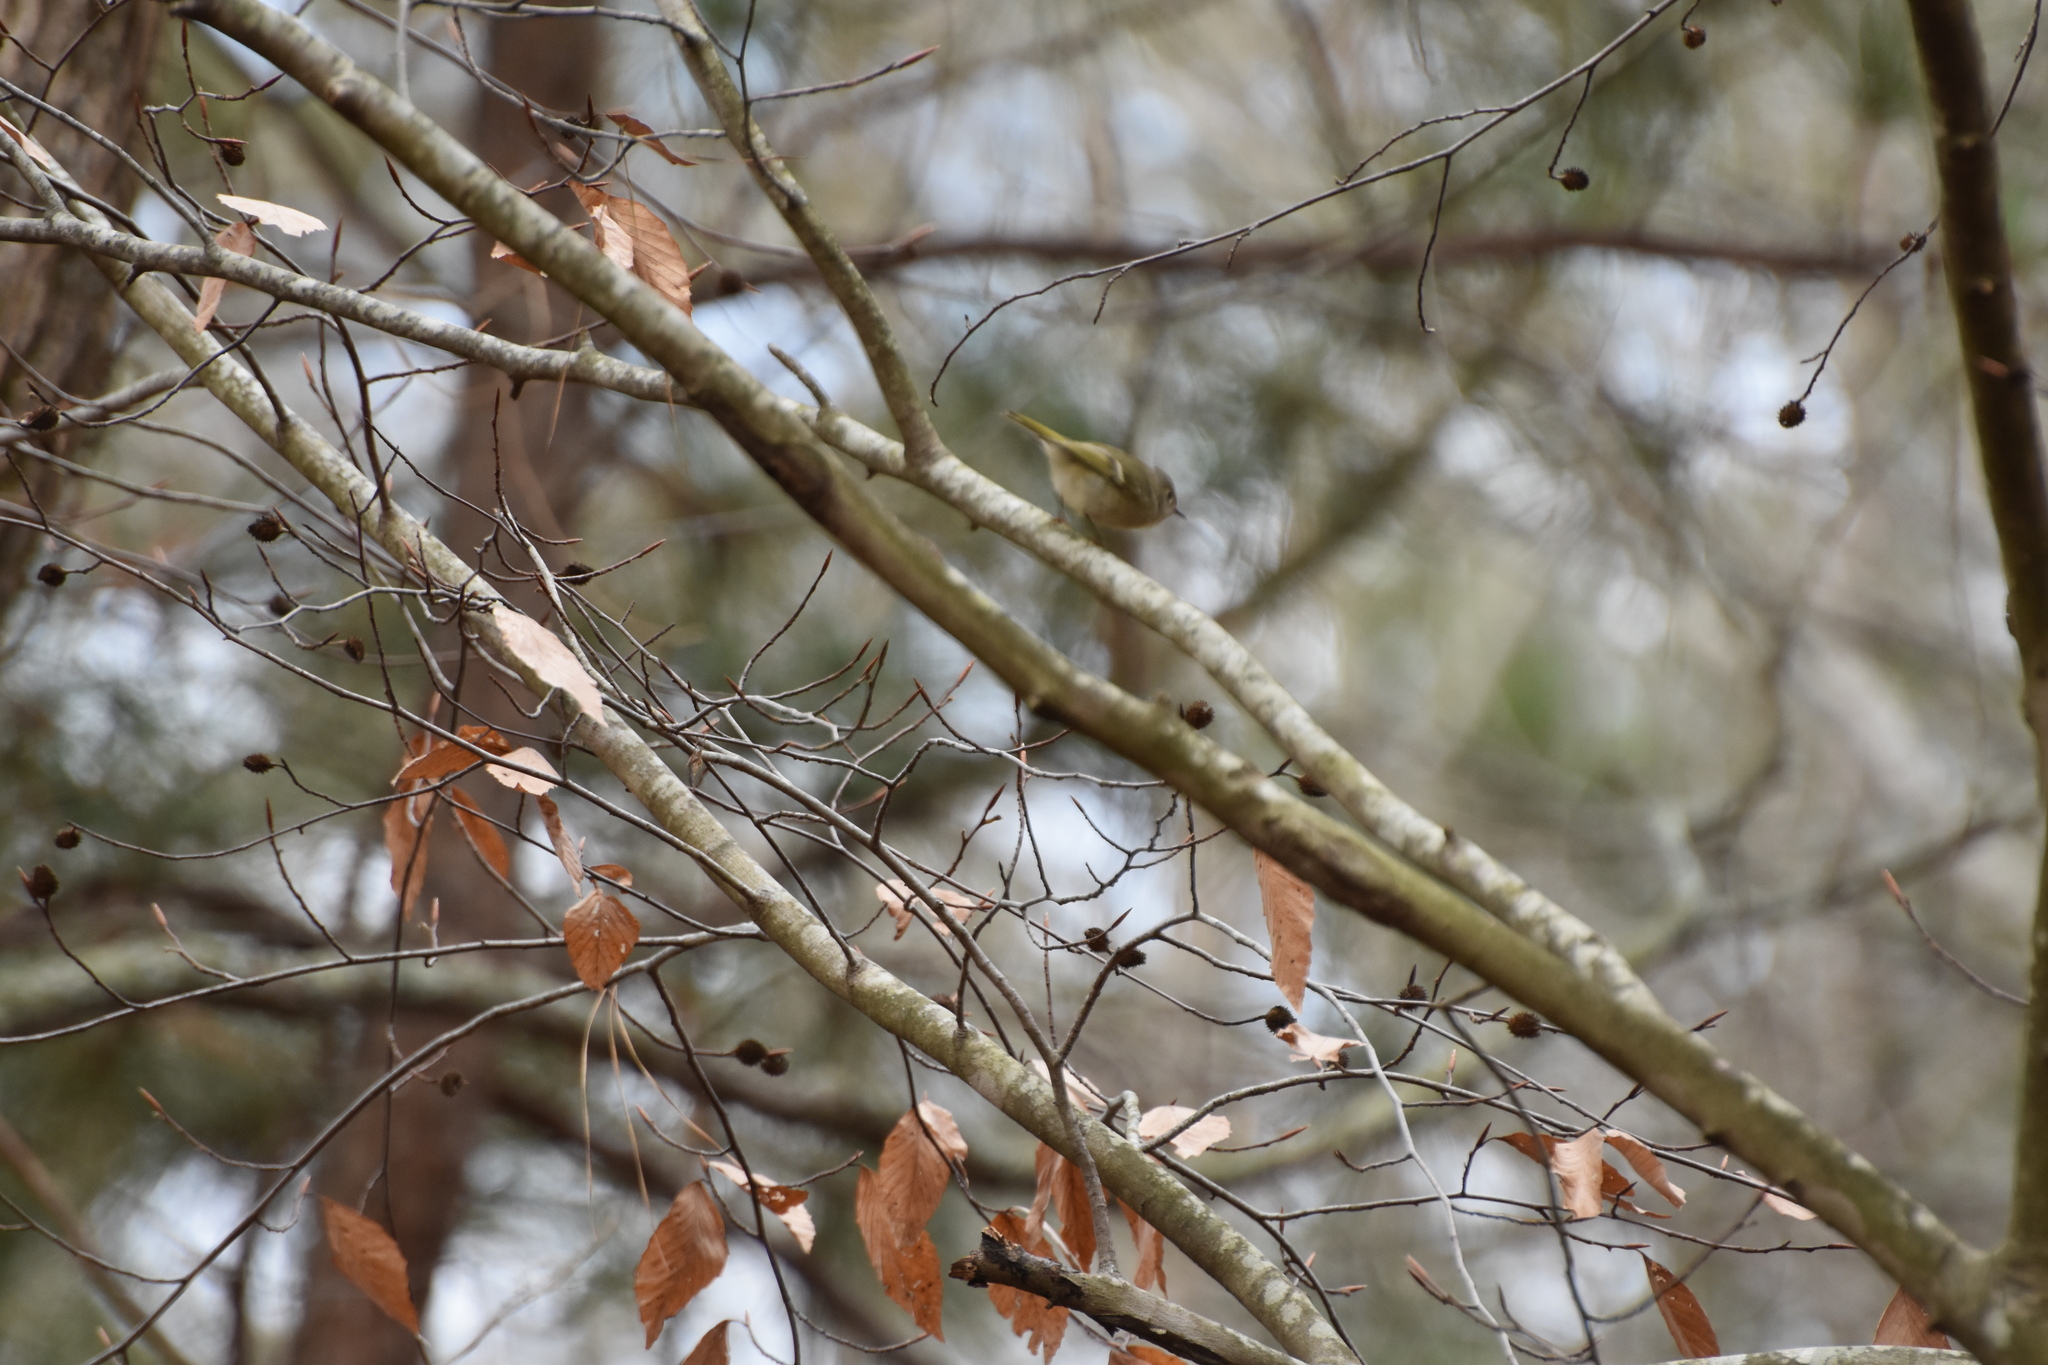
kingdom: Animalia
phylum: Chordata
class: Aves
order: Passeriformes
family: Regulidae
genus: Regulus
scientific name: Regulus calendula
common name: Ruby-crowned kinglet
